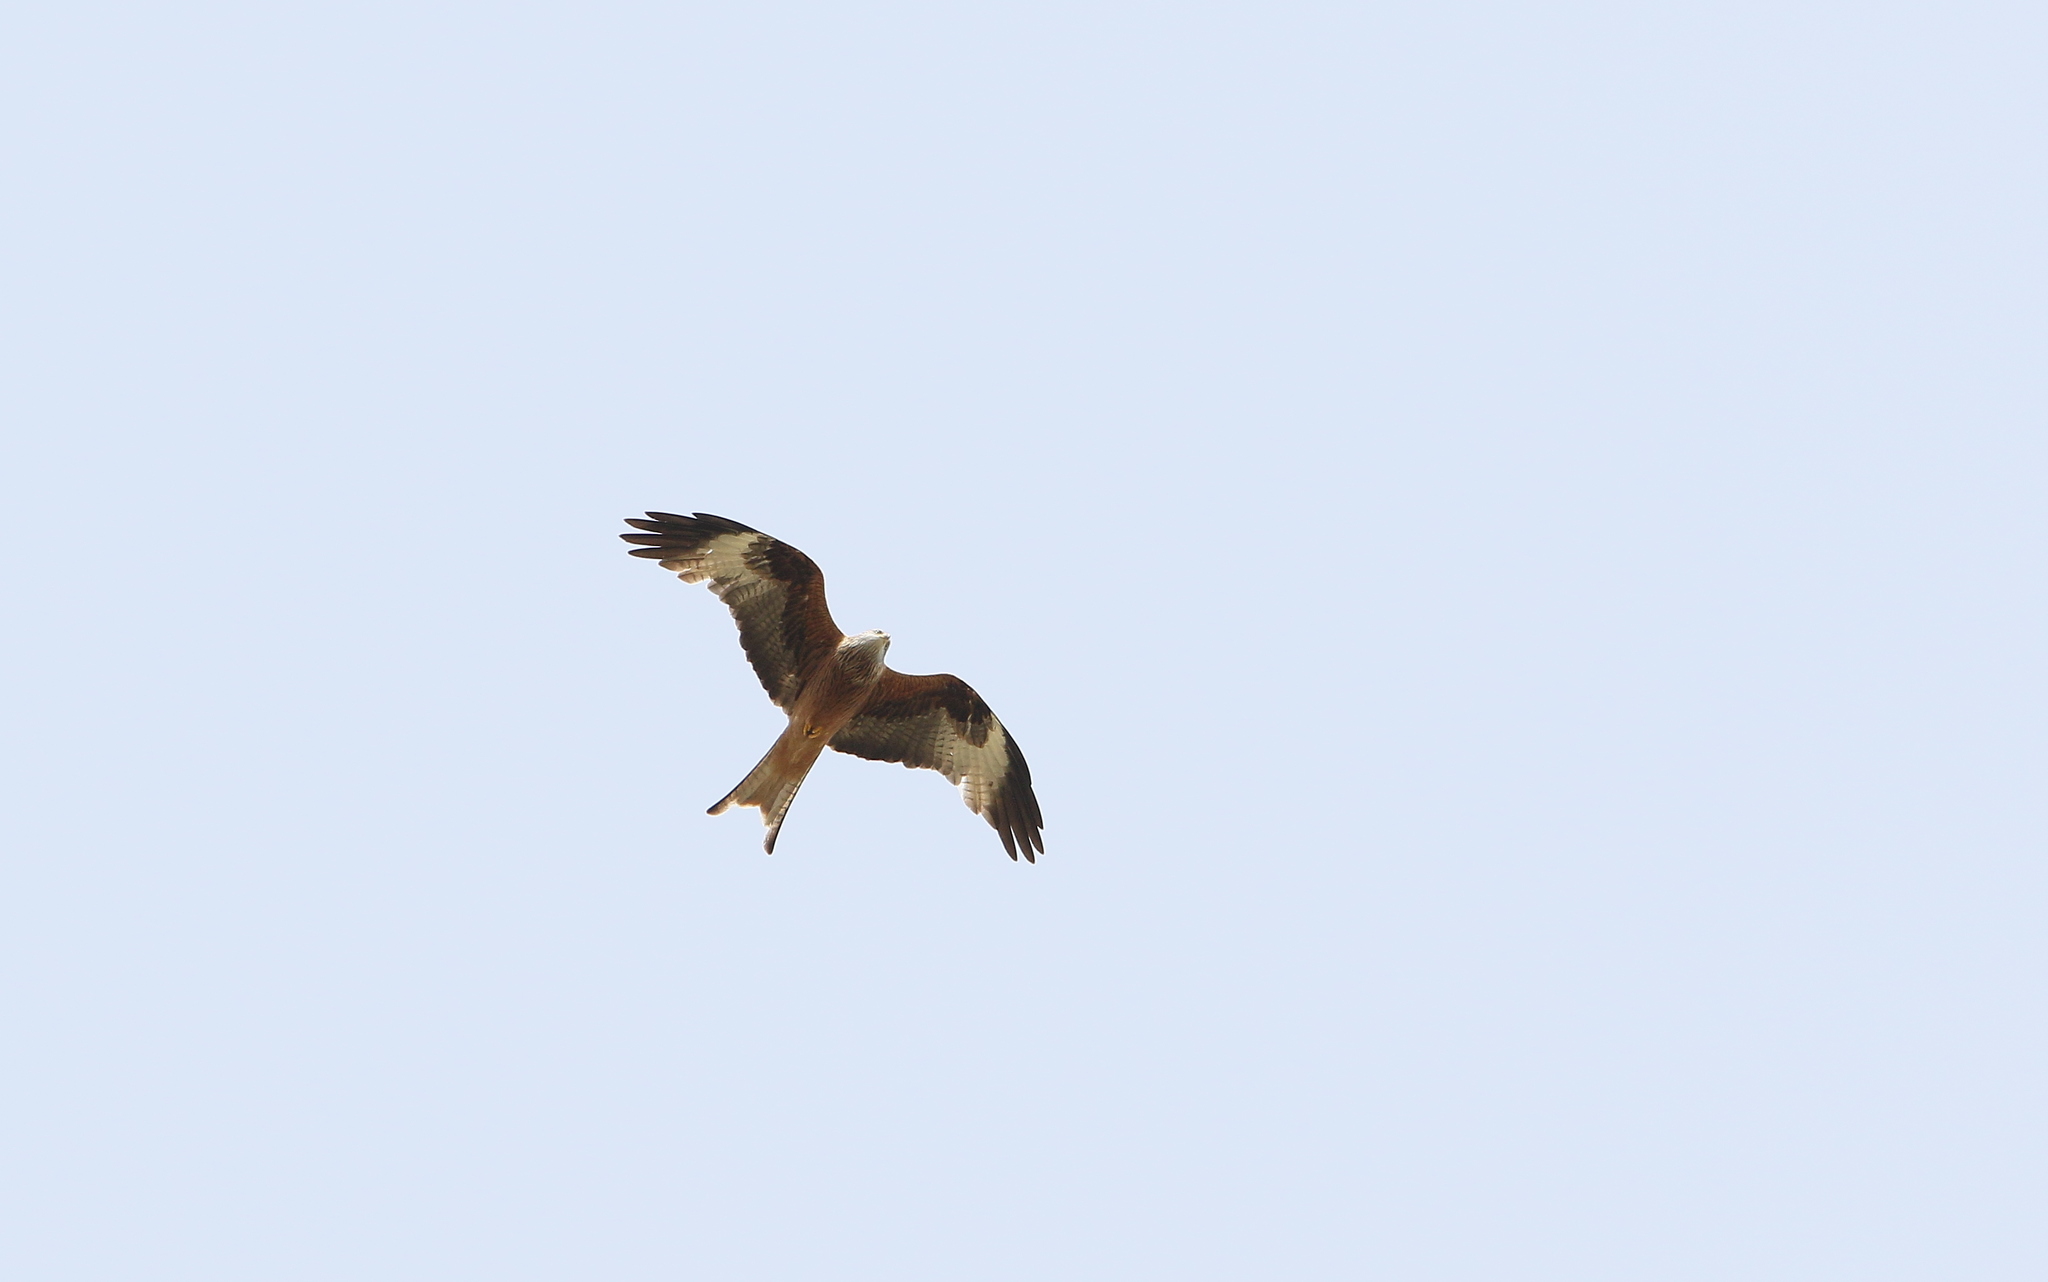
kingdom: Animalia
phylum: Chordata
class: Aves
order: Accipitriformes
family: Accipitridae
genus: Milvus
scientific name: Milvus milvus
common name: Red kite
